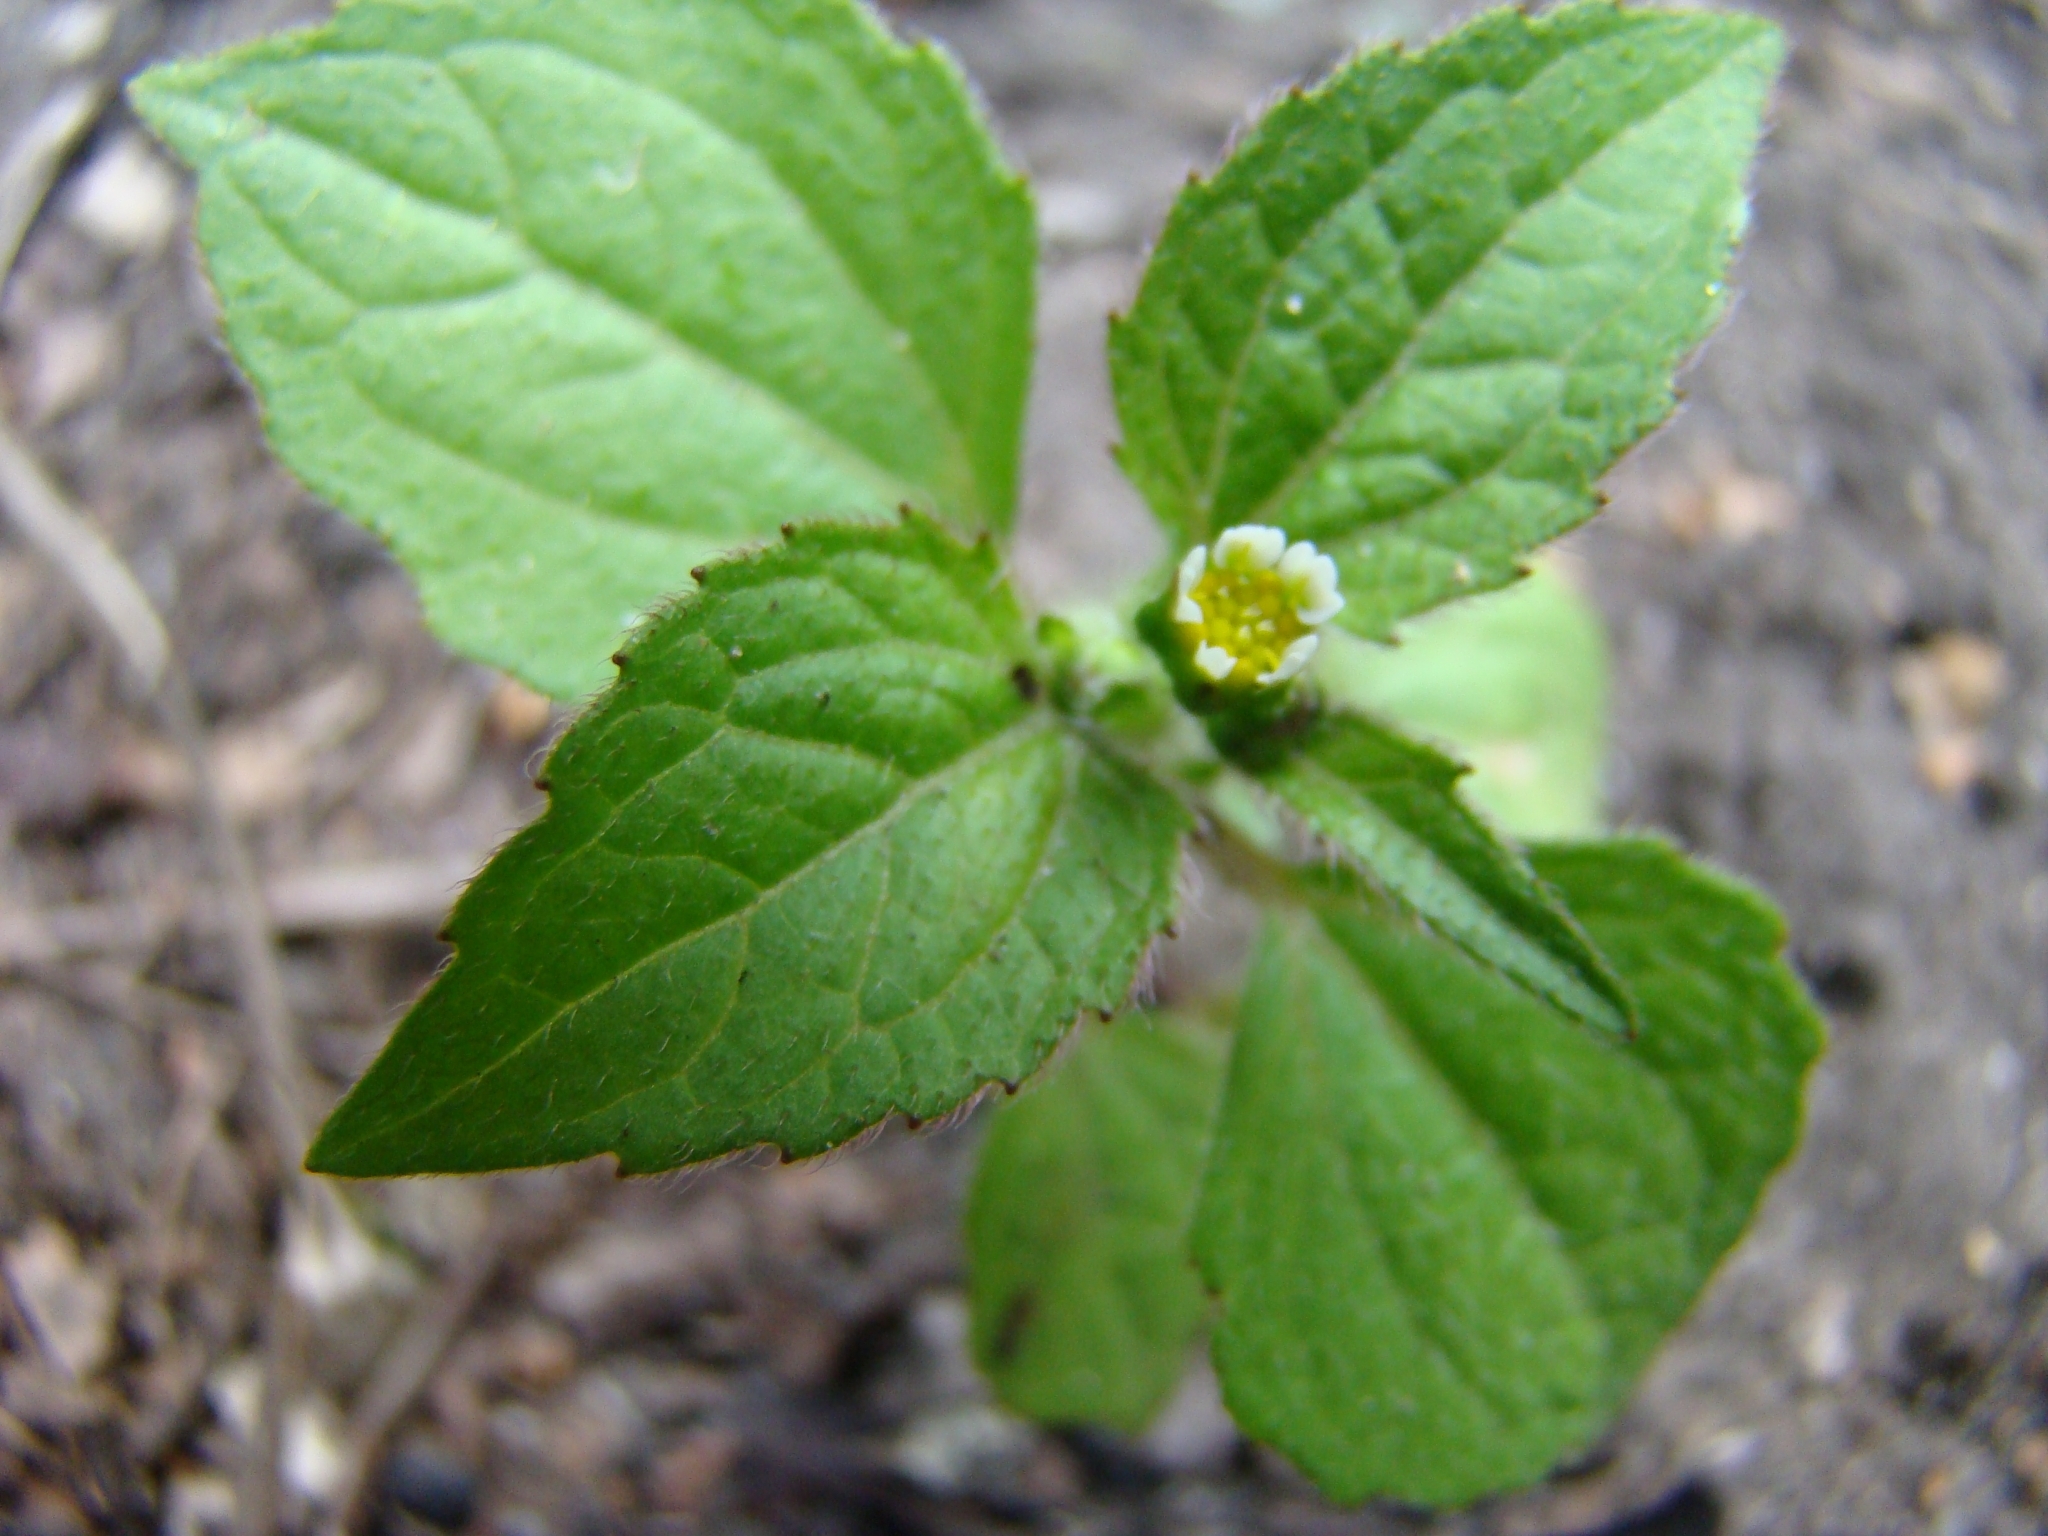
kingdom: Plantae
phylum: Tracheophyta
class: Magnoliopsida
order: Asterales
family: Asteraceae
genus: Galinsoga
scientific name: Galinsoga quadriradiata
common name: Shaggy soldier
